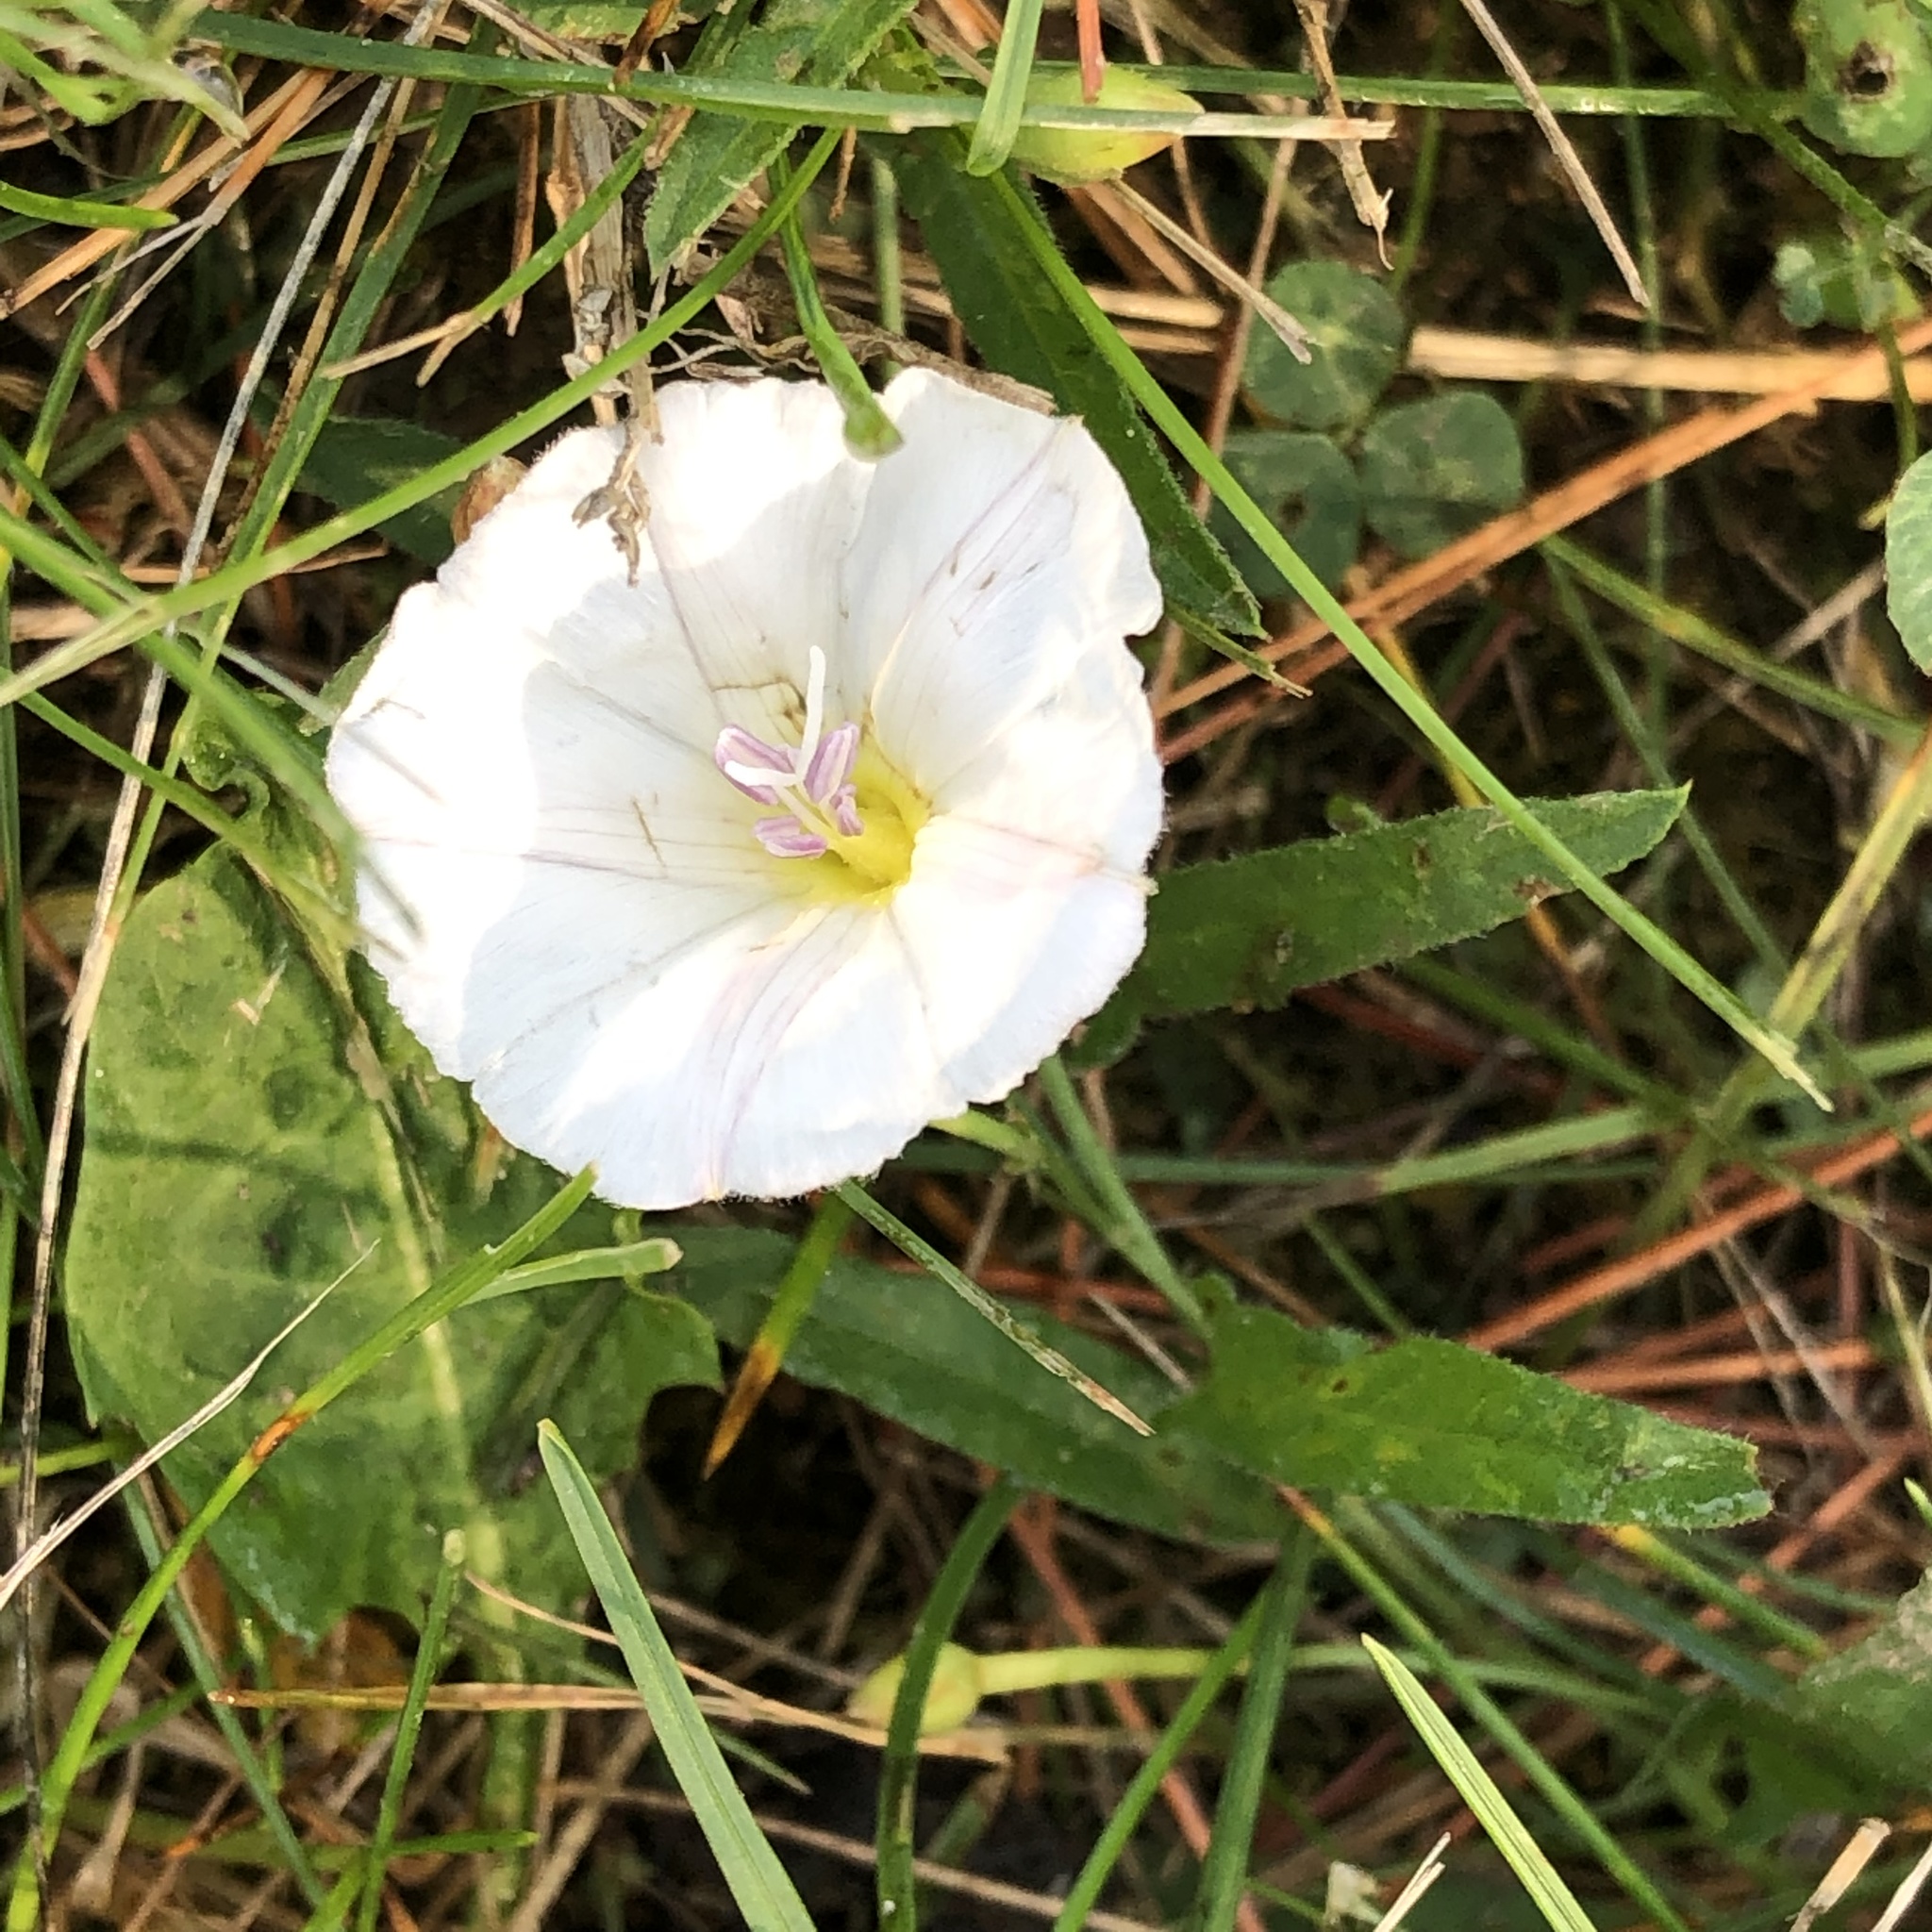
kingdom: Plantae
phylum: Tracheophyta
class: Magnoliopsida
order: Solanales
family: Convolvulaceae
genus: Convolvulus
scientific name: Convolvulus arvensis
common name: Field bindweed
